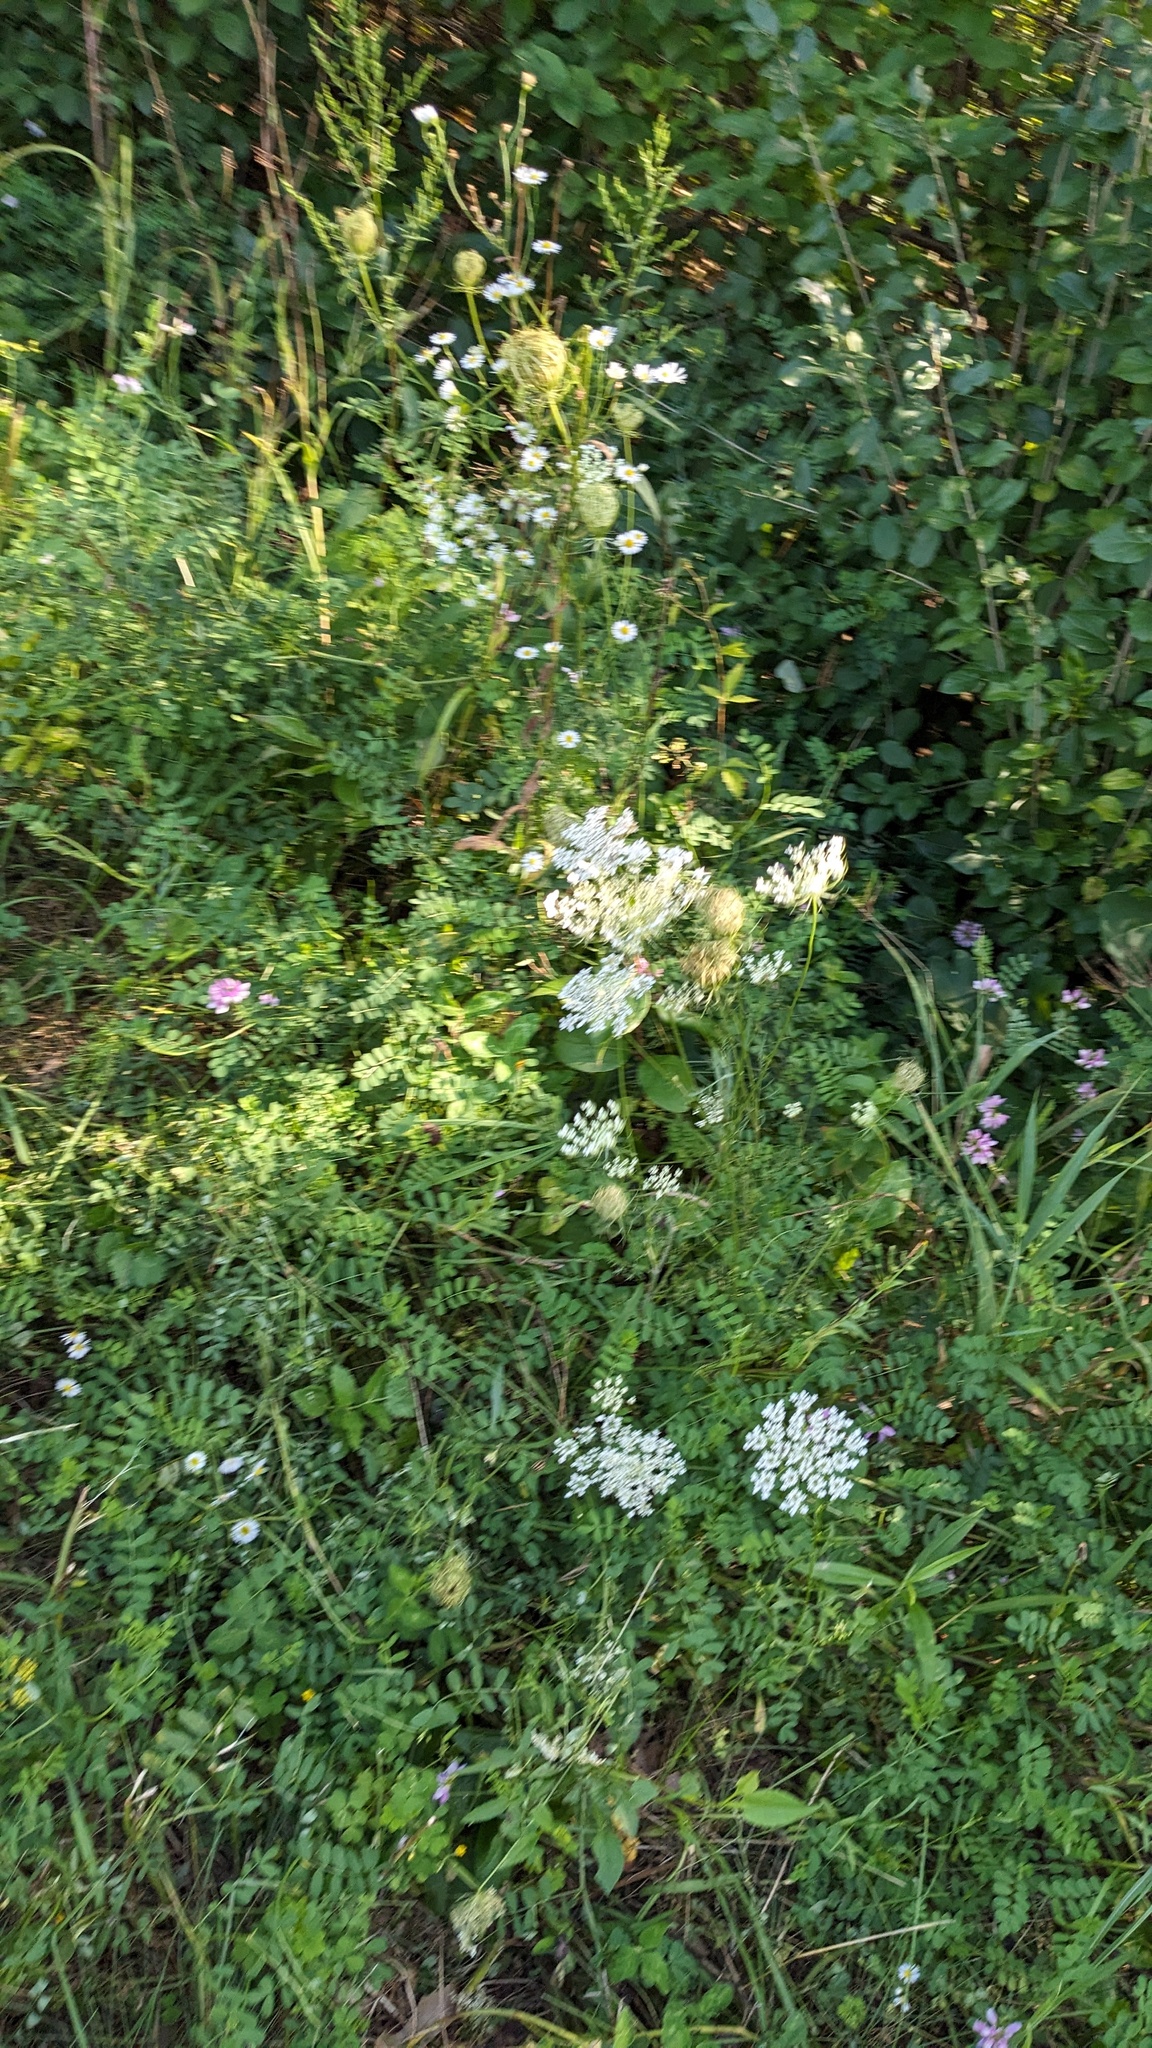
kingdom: Plantae
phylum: Tracheophyta
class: Magnoliopsida
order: Apiales
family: Apiaceae
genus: Daucus
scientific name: Daucus carota
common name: Wild carrot
